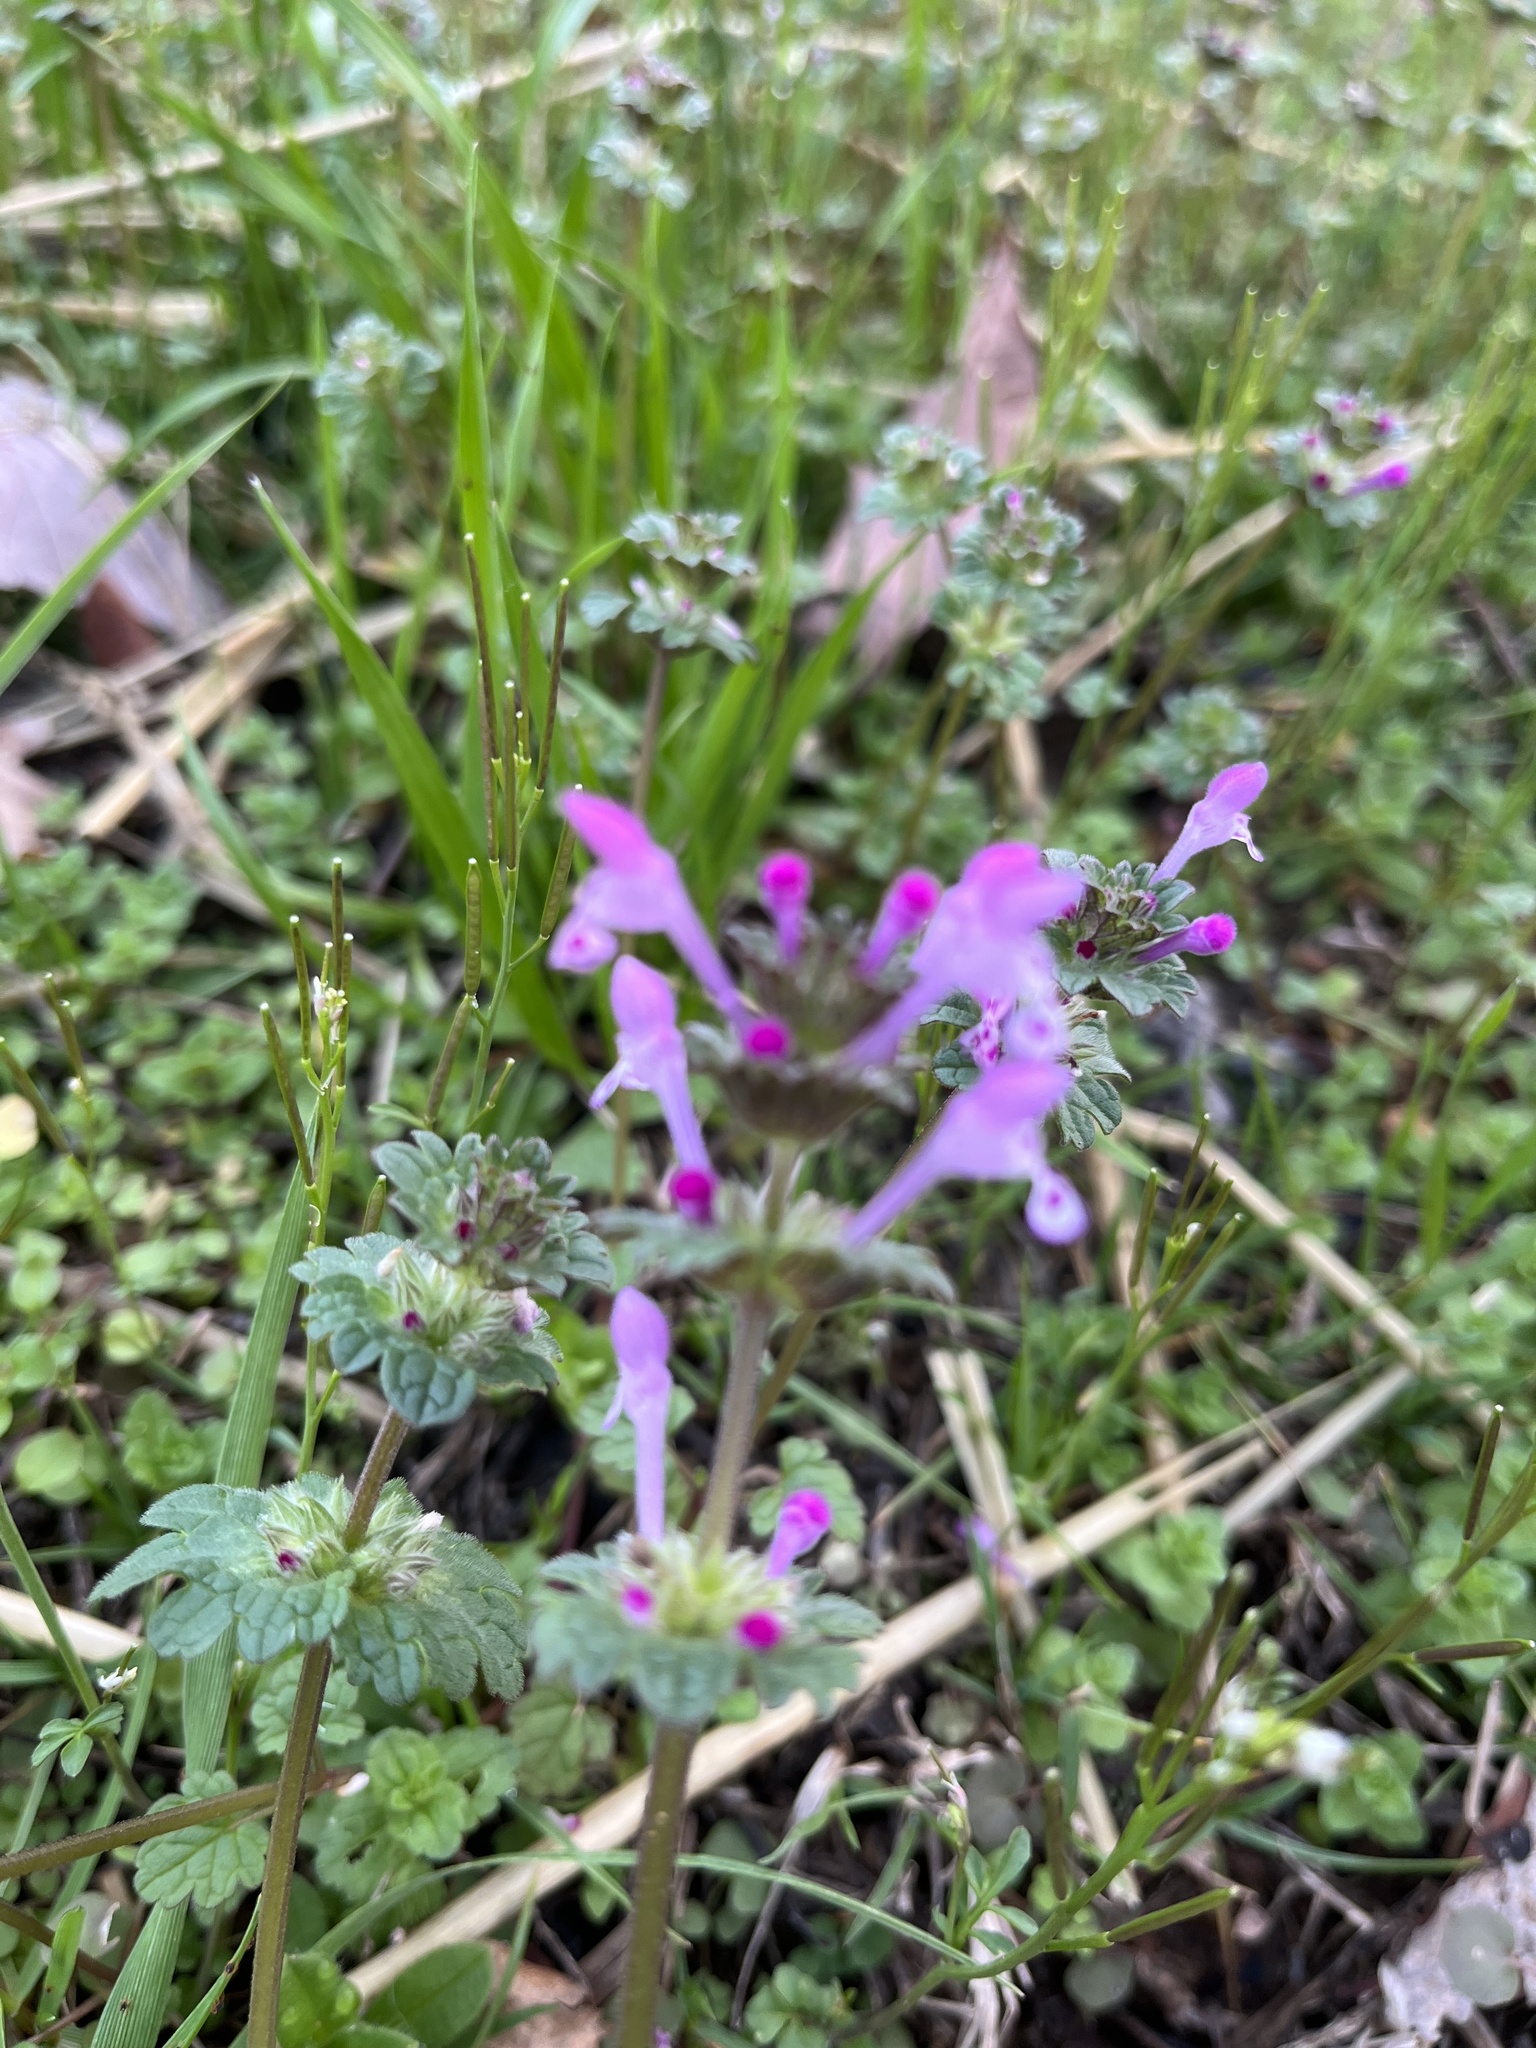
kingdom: Plantae
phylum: Tracheophyta
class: Magnoliopsida
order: Lamiales
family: Lamiaceae
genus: Lamium
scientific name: Lamium amplexicaule
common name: Henbit dead-nettle
